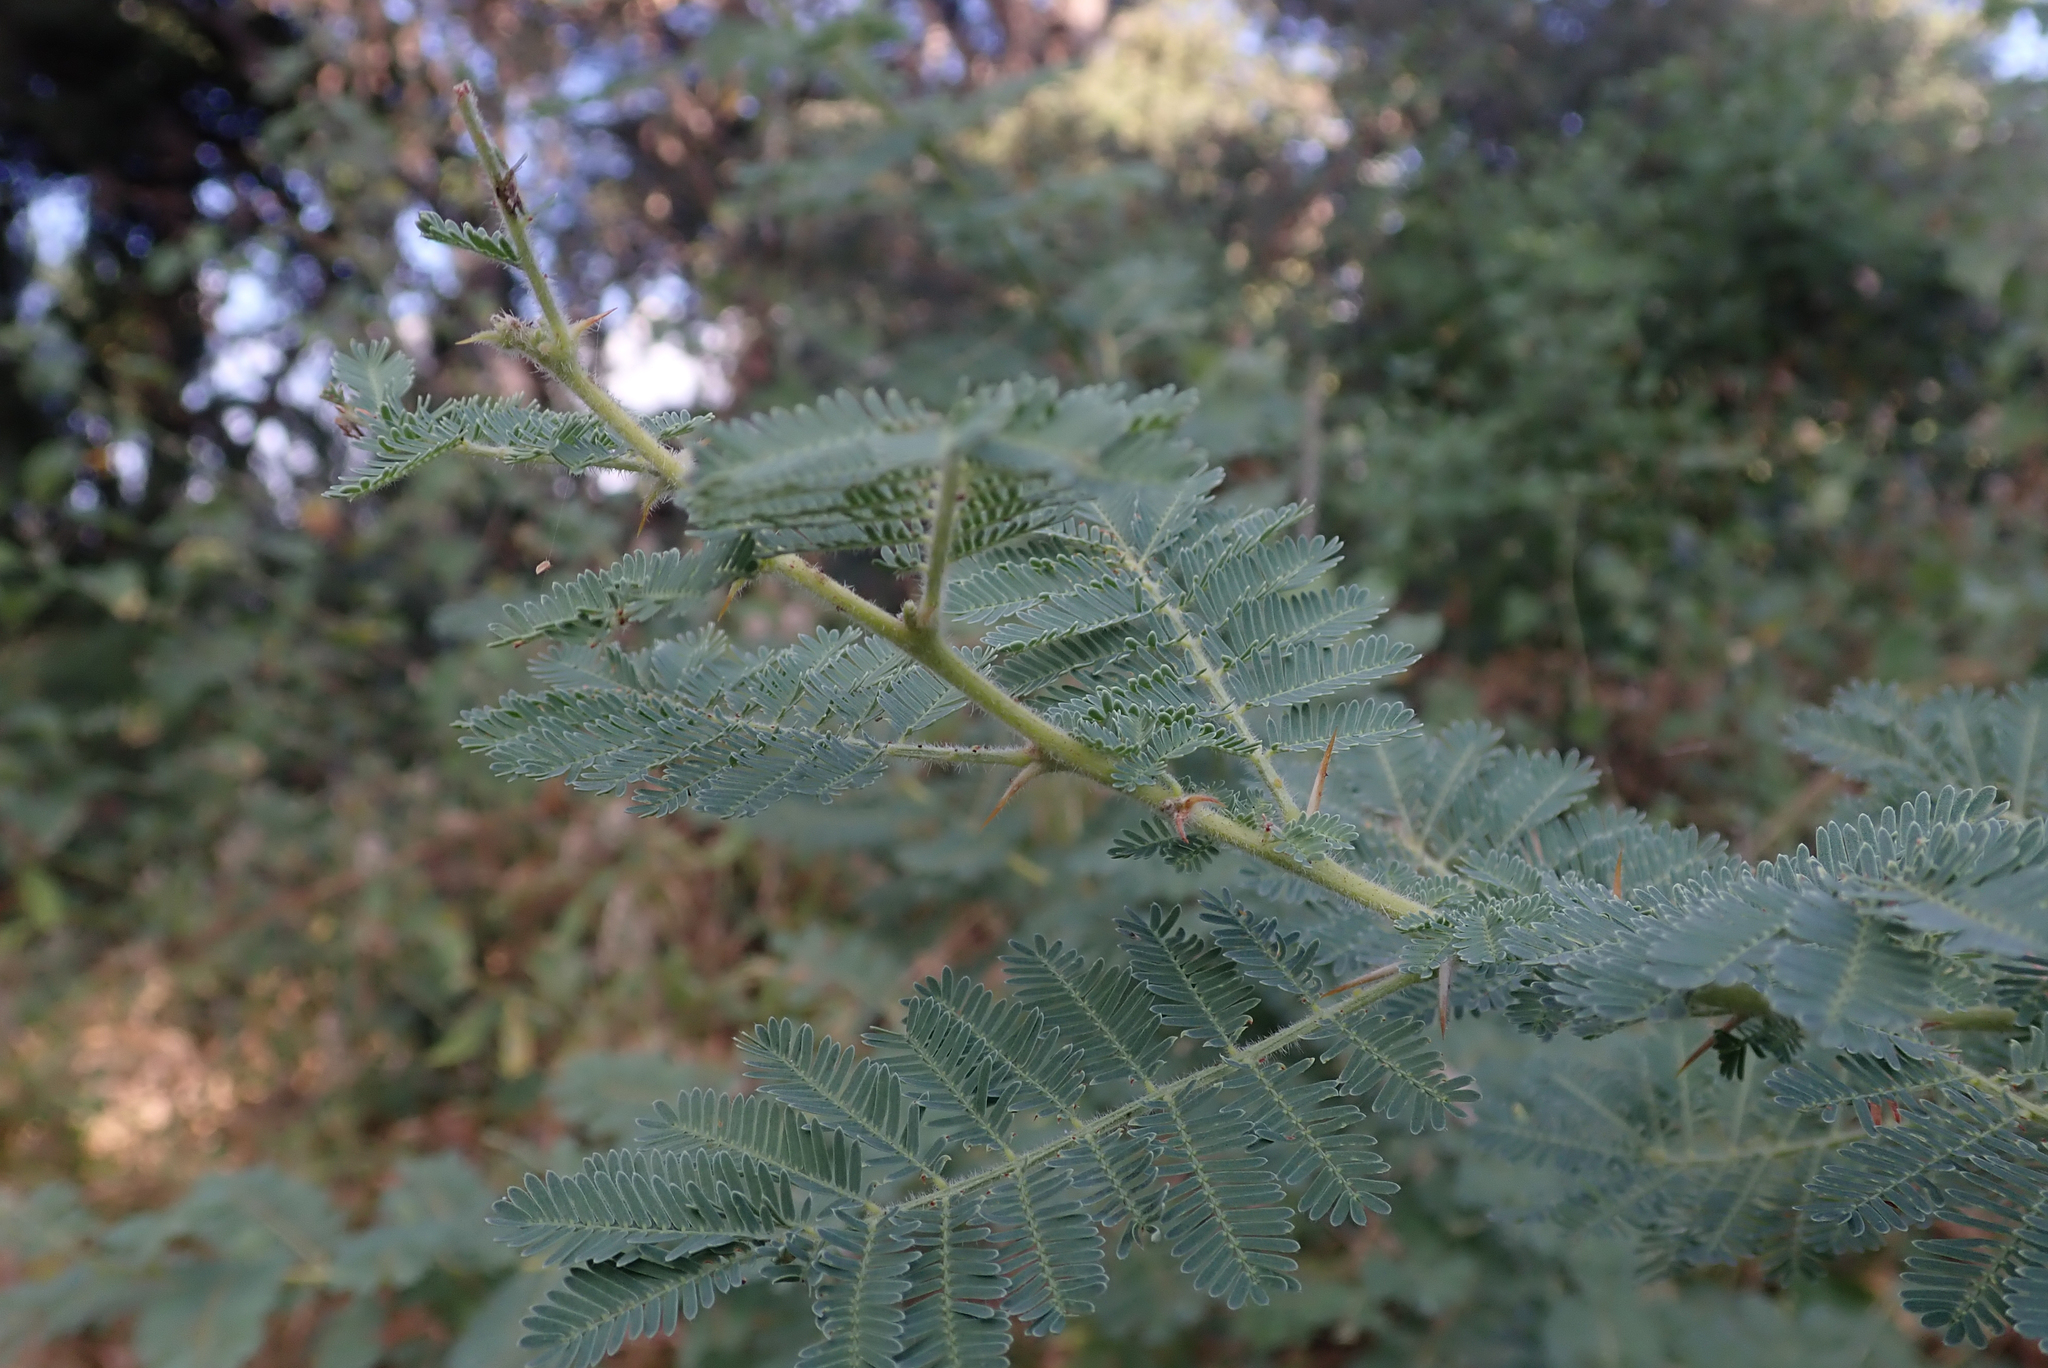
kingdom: Plantae
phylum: Tracheophyta
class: Magnoliopsida
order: Fabales
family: Fabaceae
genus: Vachellia
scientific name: Vachellia sieberiana
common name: Flat-topped thorn
